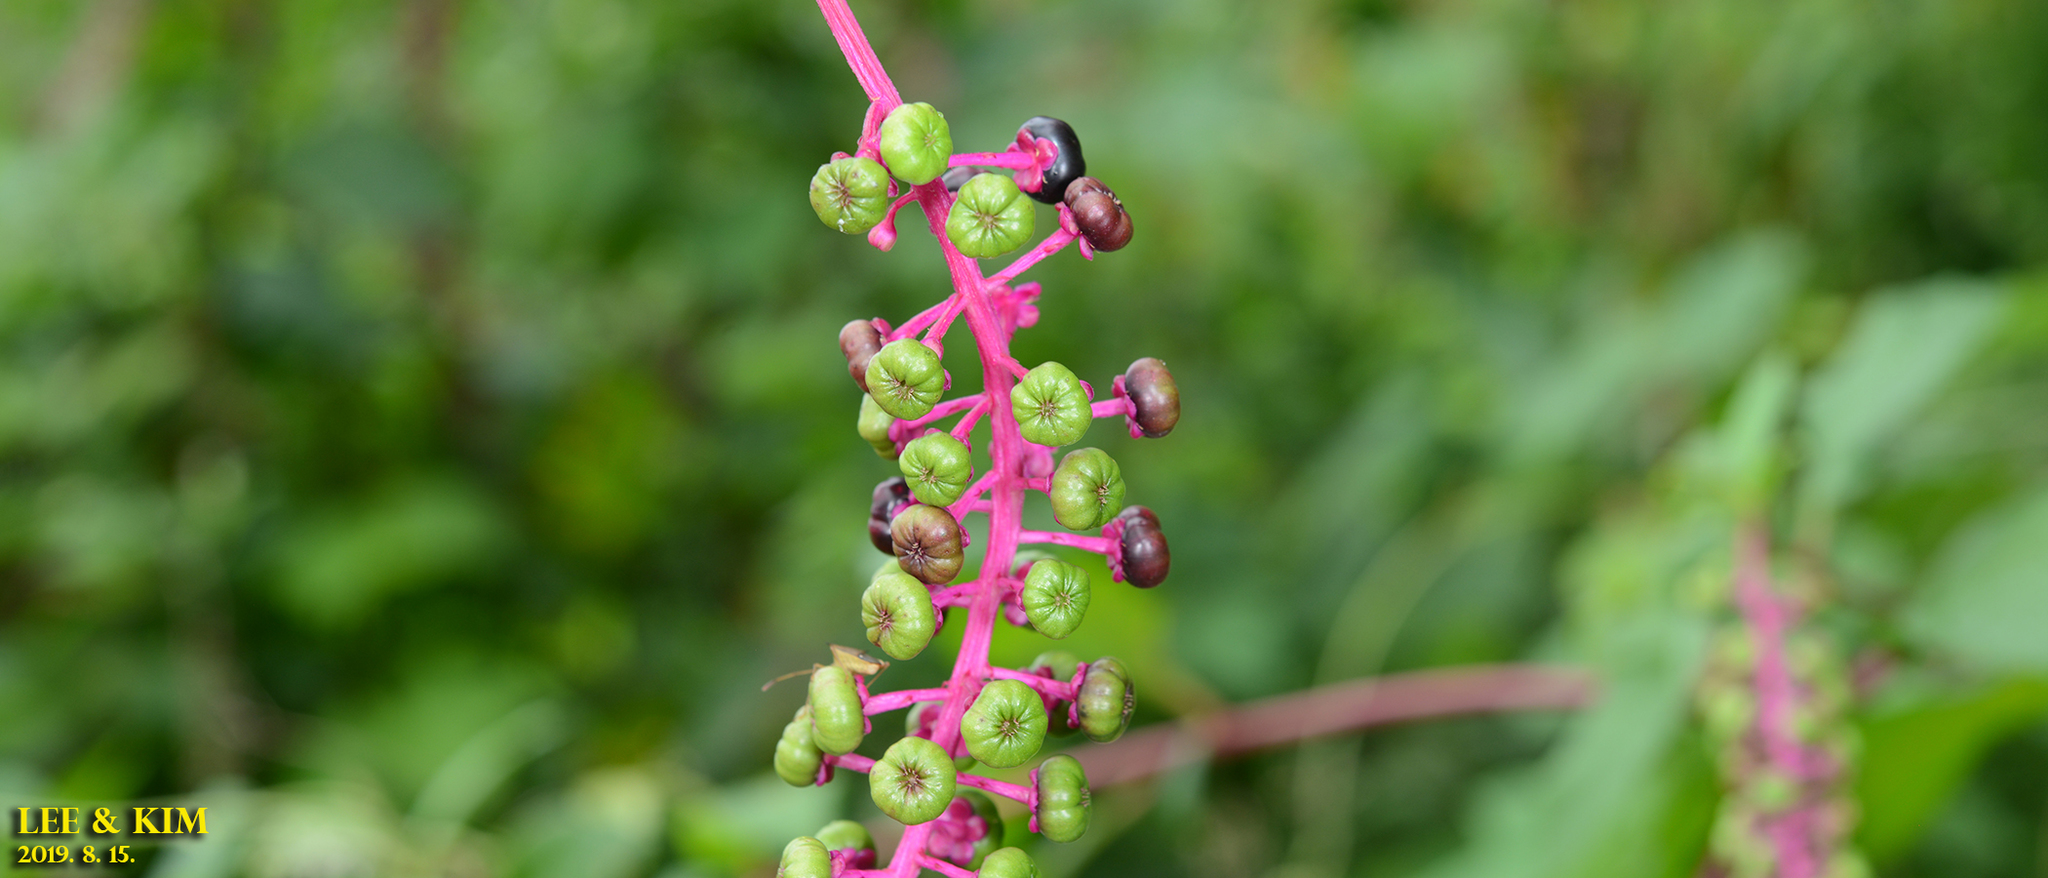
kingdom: Plantae
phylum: Tracheophyta
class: Magnoliopsida
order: Caryophyllales
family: Phytolaccaceae
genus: Phytolacca
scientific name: Phytolacca americana
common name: American pokeweed
